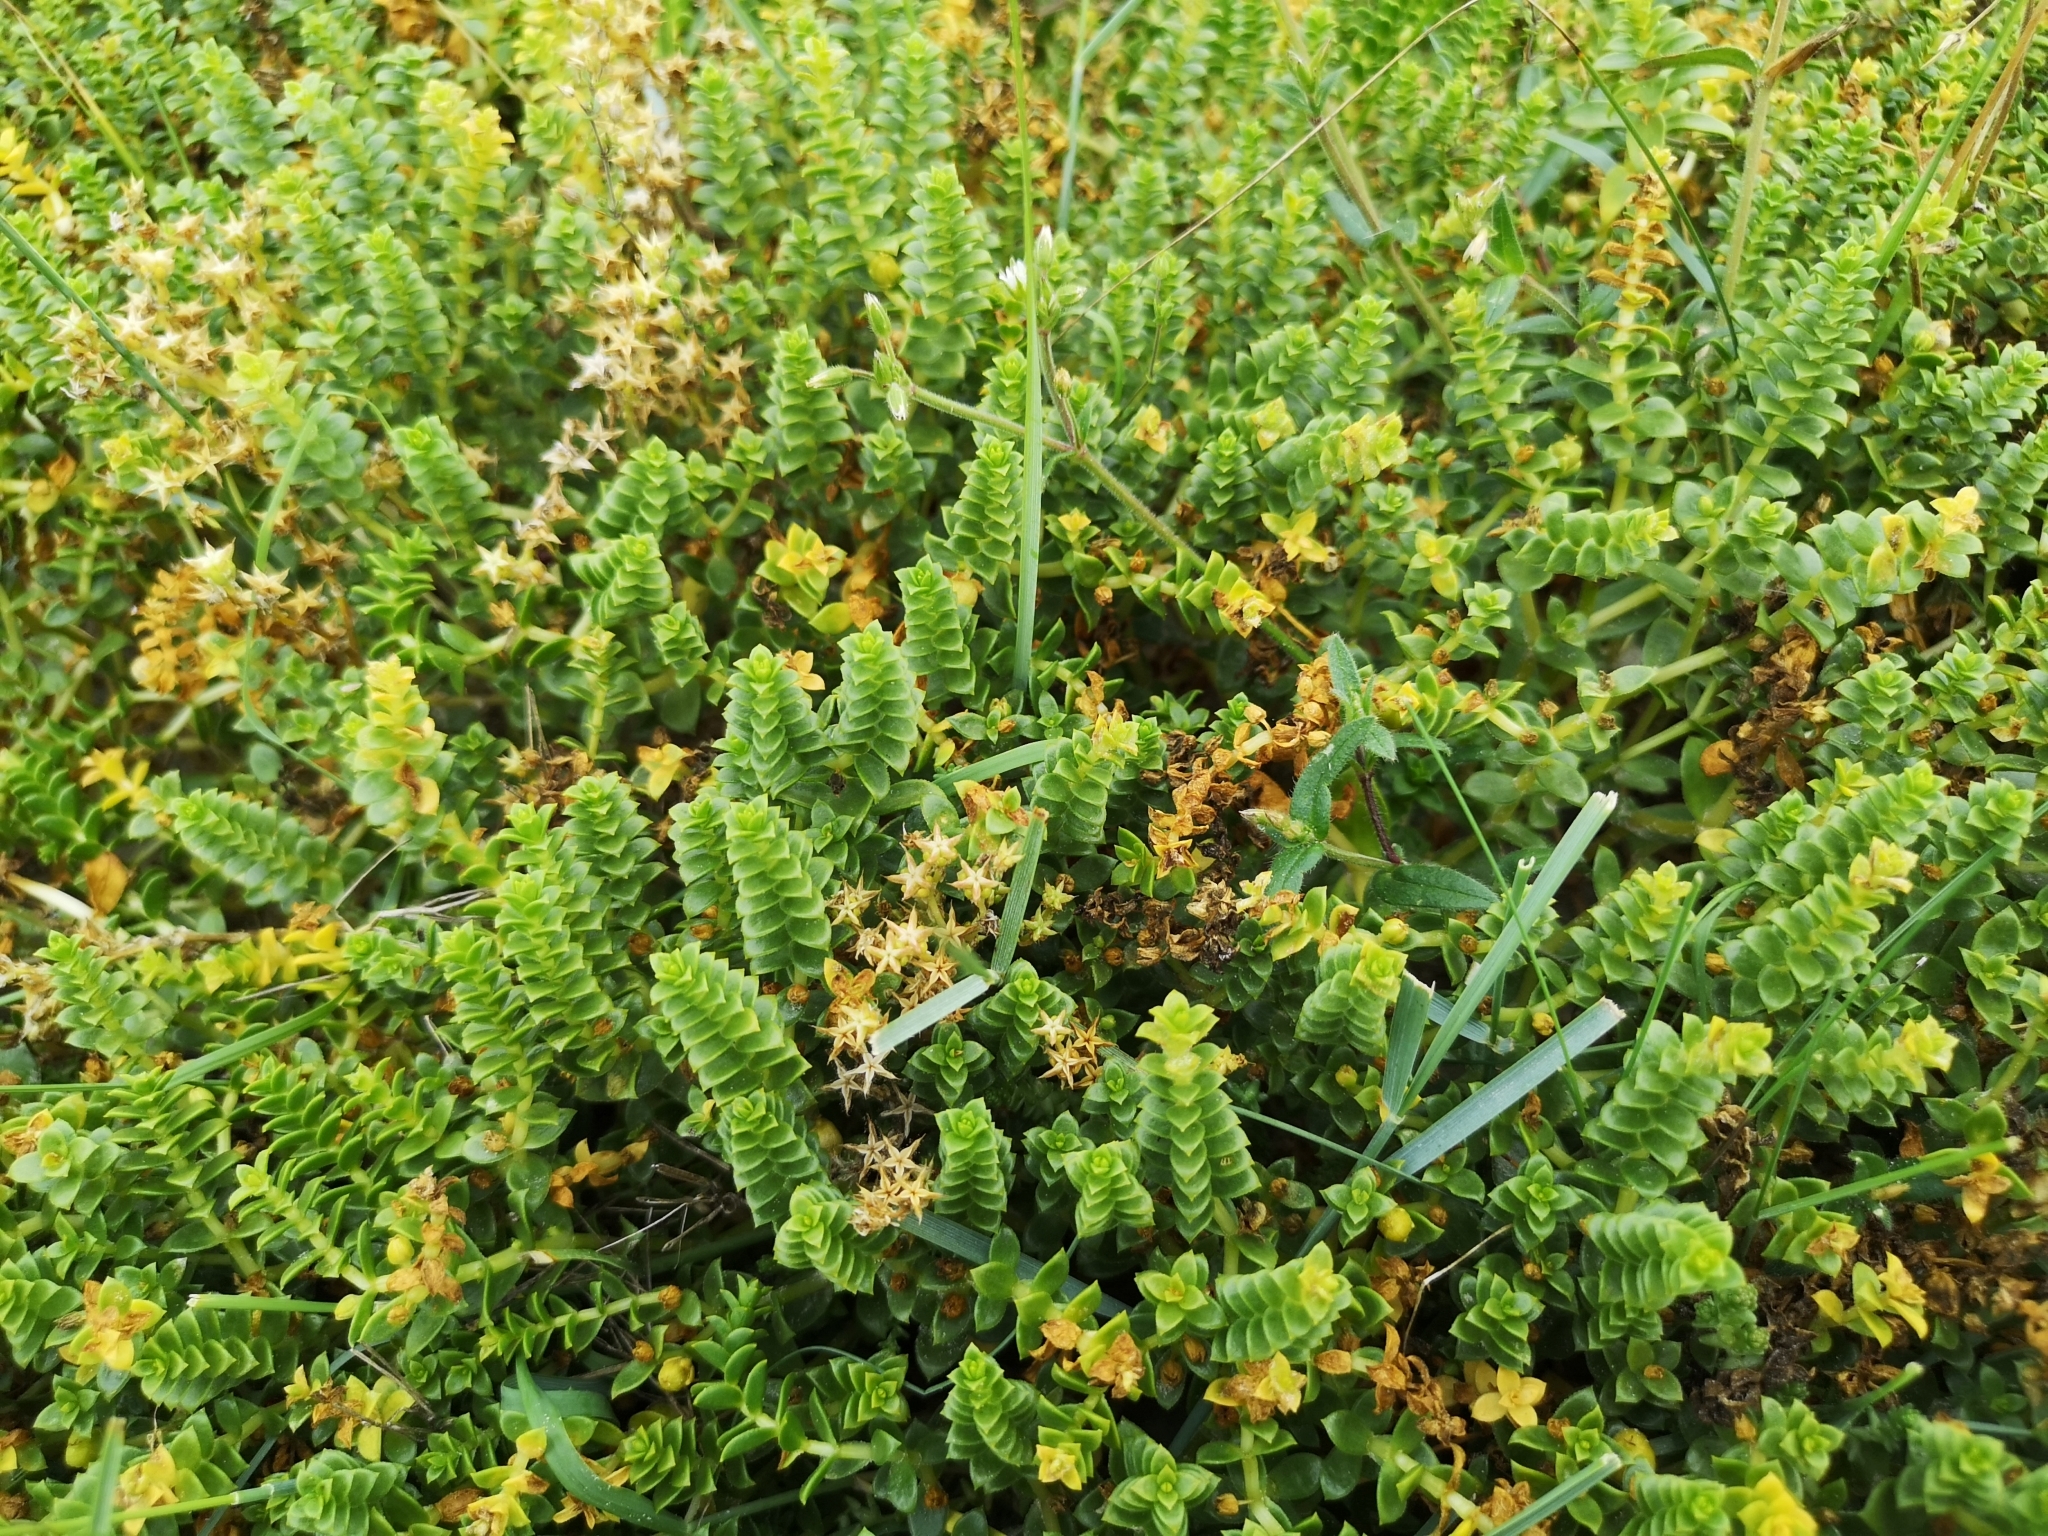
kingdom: Plantae
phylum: Tracheophyta
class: Magnoliopsida
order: Caryophyllales
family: Caryophyllaceae
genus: Honckenya
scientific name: Honckenya peploides
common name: Sea sandwort
